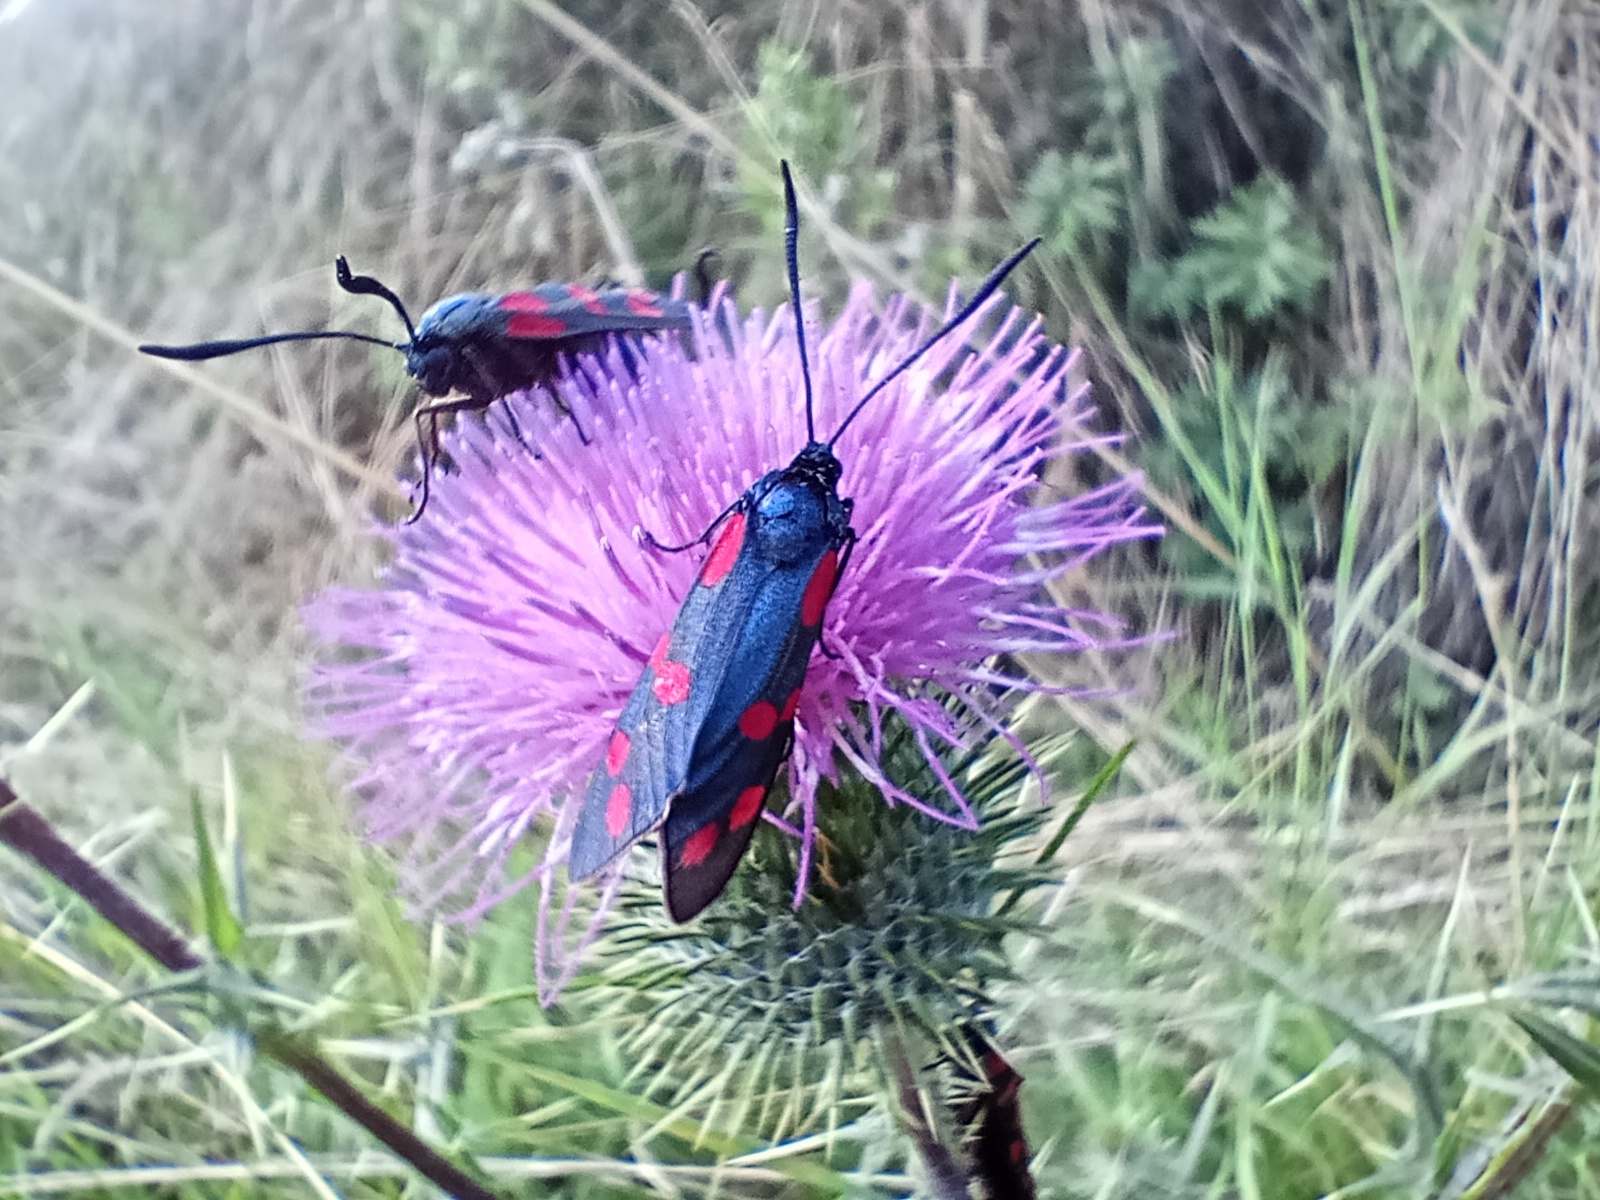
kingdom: Animalia
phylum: Arthropoda
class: Insecta
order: Lepidoptera
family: Zygaenidae
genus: Zygaena
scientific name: Zygaena filipendulae
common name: Six-spot burnet
